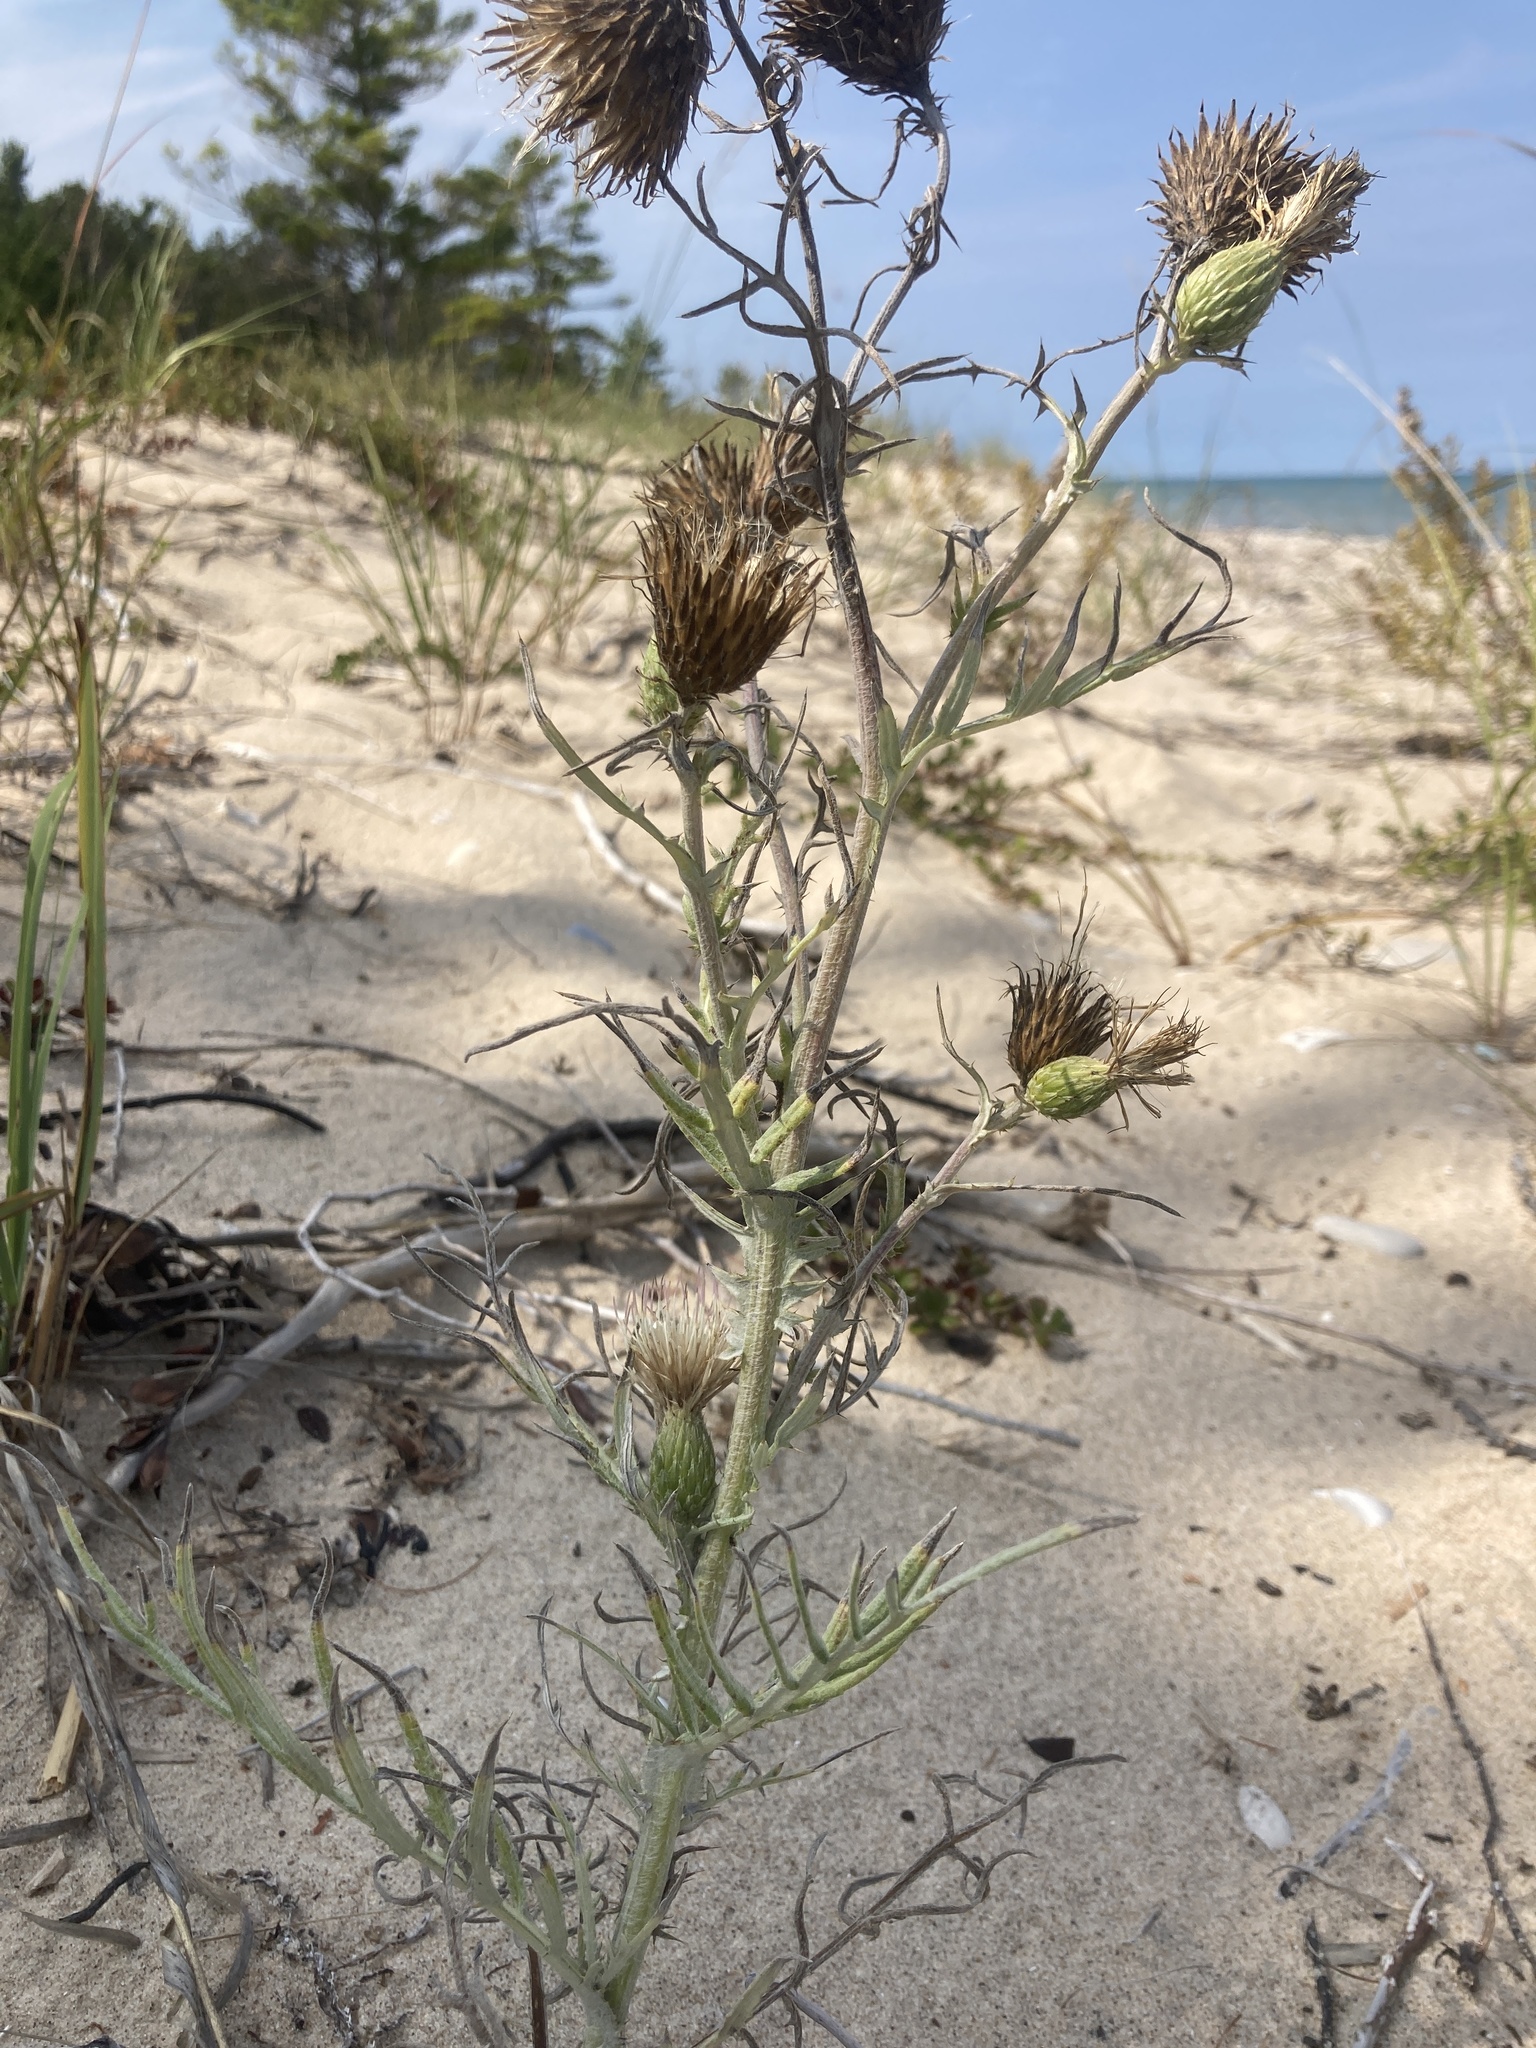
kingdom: Plantae
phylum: Tracheophyta
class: Magnoliopsida
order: Asterales
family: Asteraceae
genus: Cirsium
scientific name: Cirsium pitcheri
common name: Dune thistle
